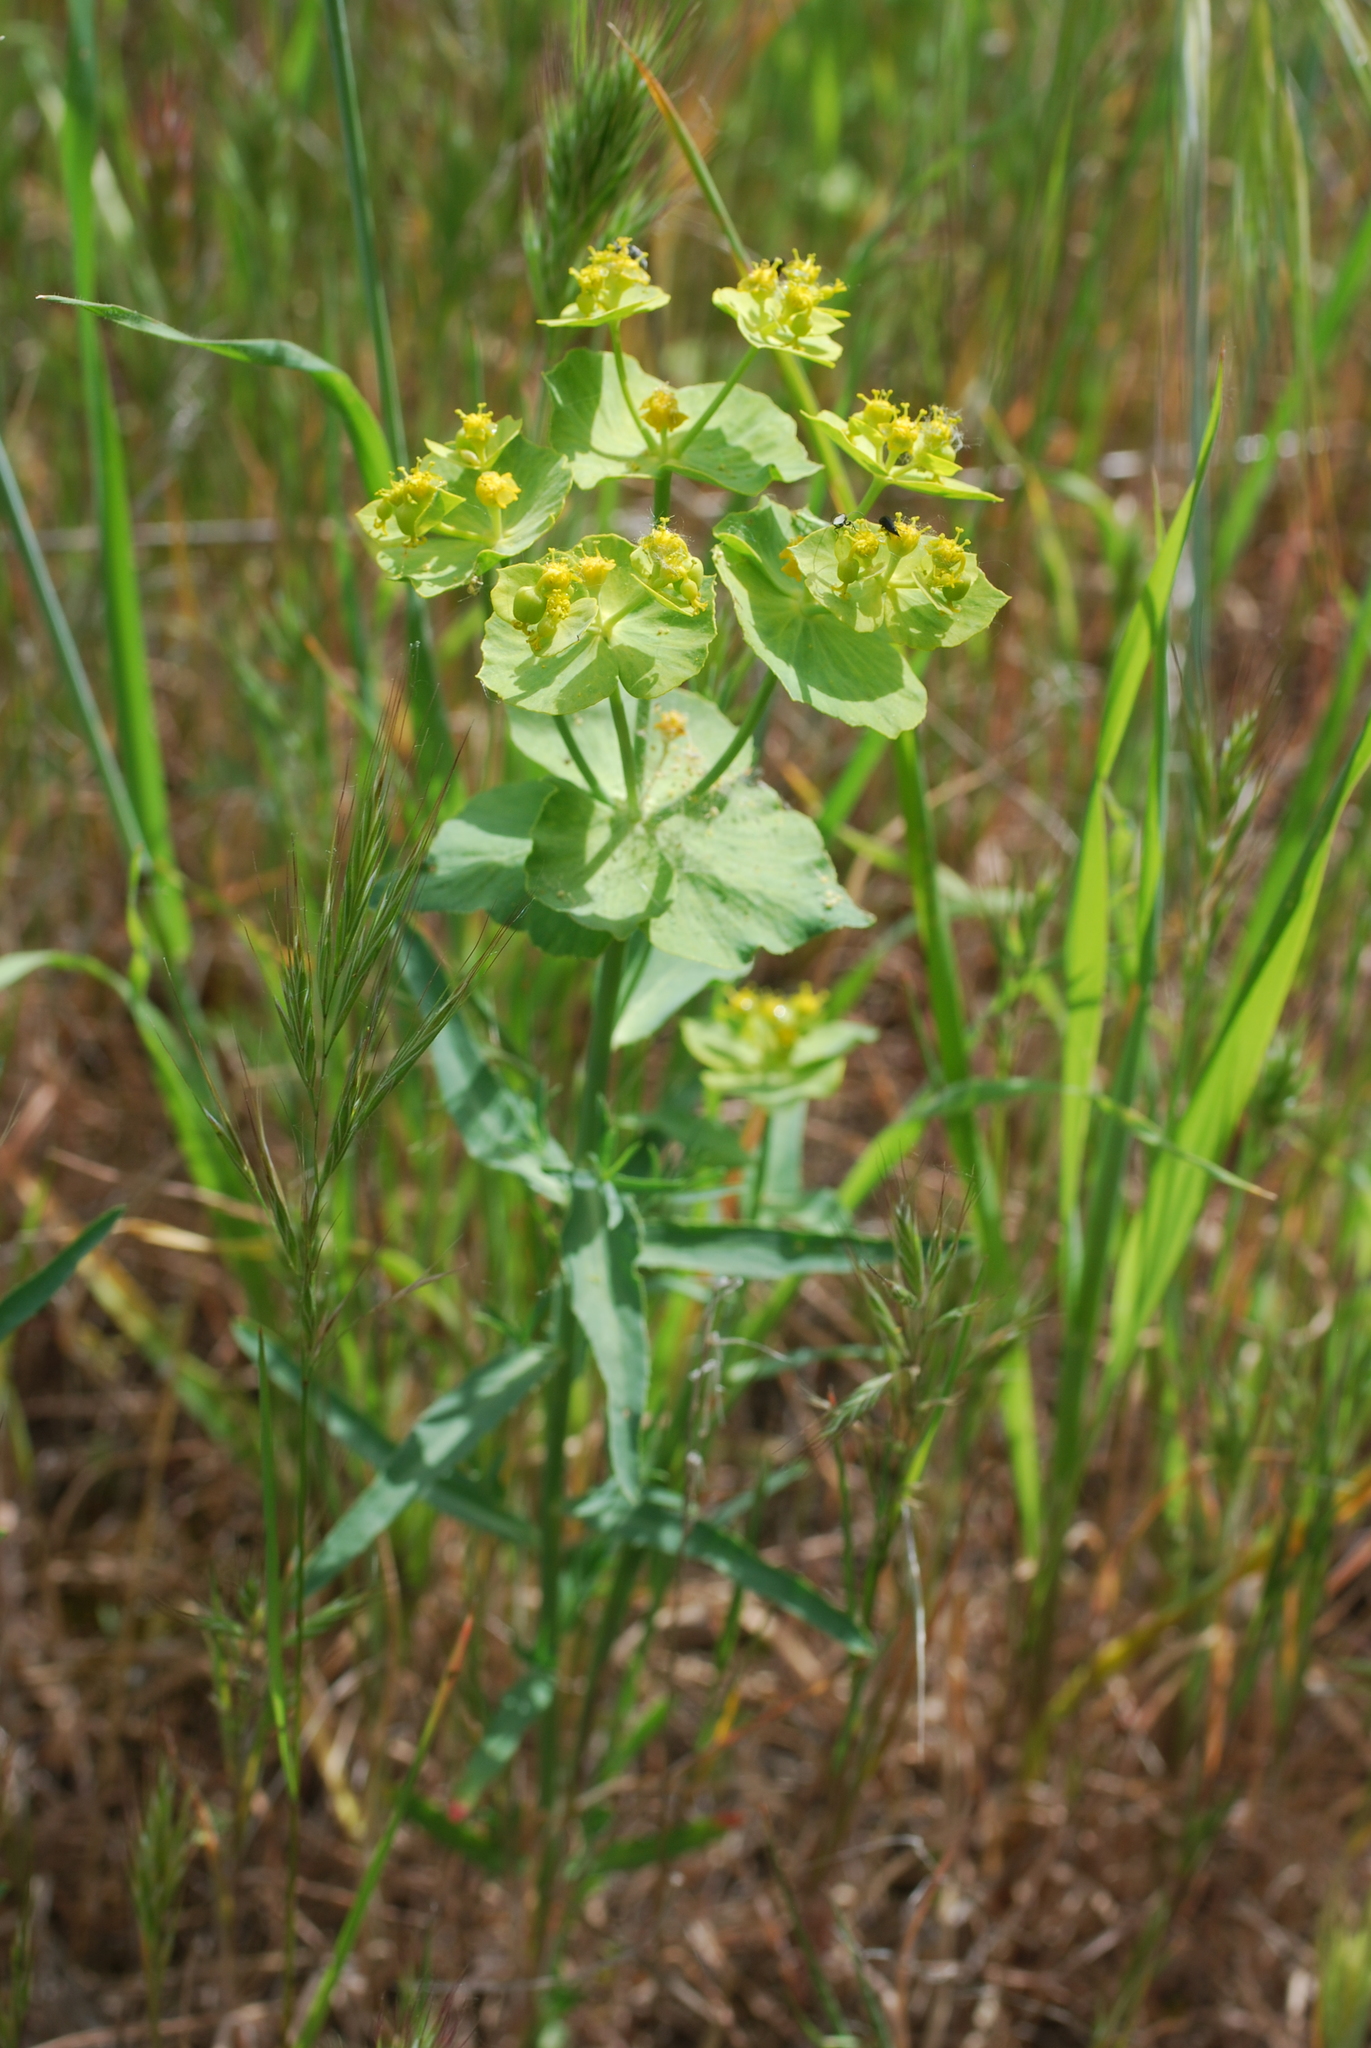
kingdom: Plantae
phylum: Tracheophyta
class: Magnoliopsida
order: Malpighiales
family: Euphorbiaceae
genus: Euphorbia
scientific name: Euphorbia serrata
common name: Serrate spurge
